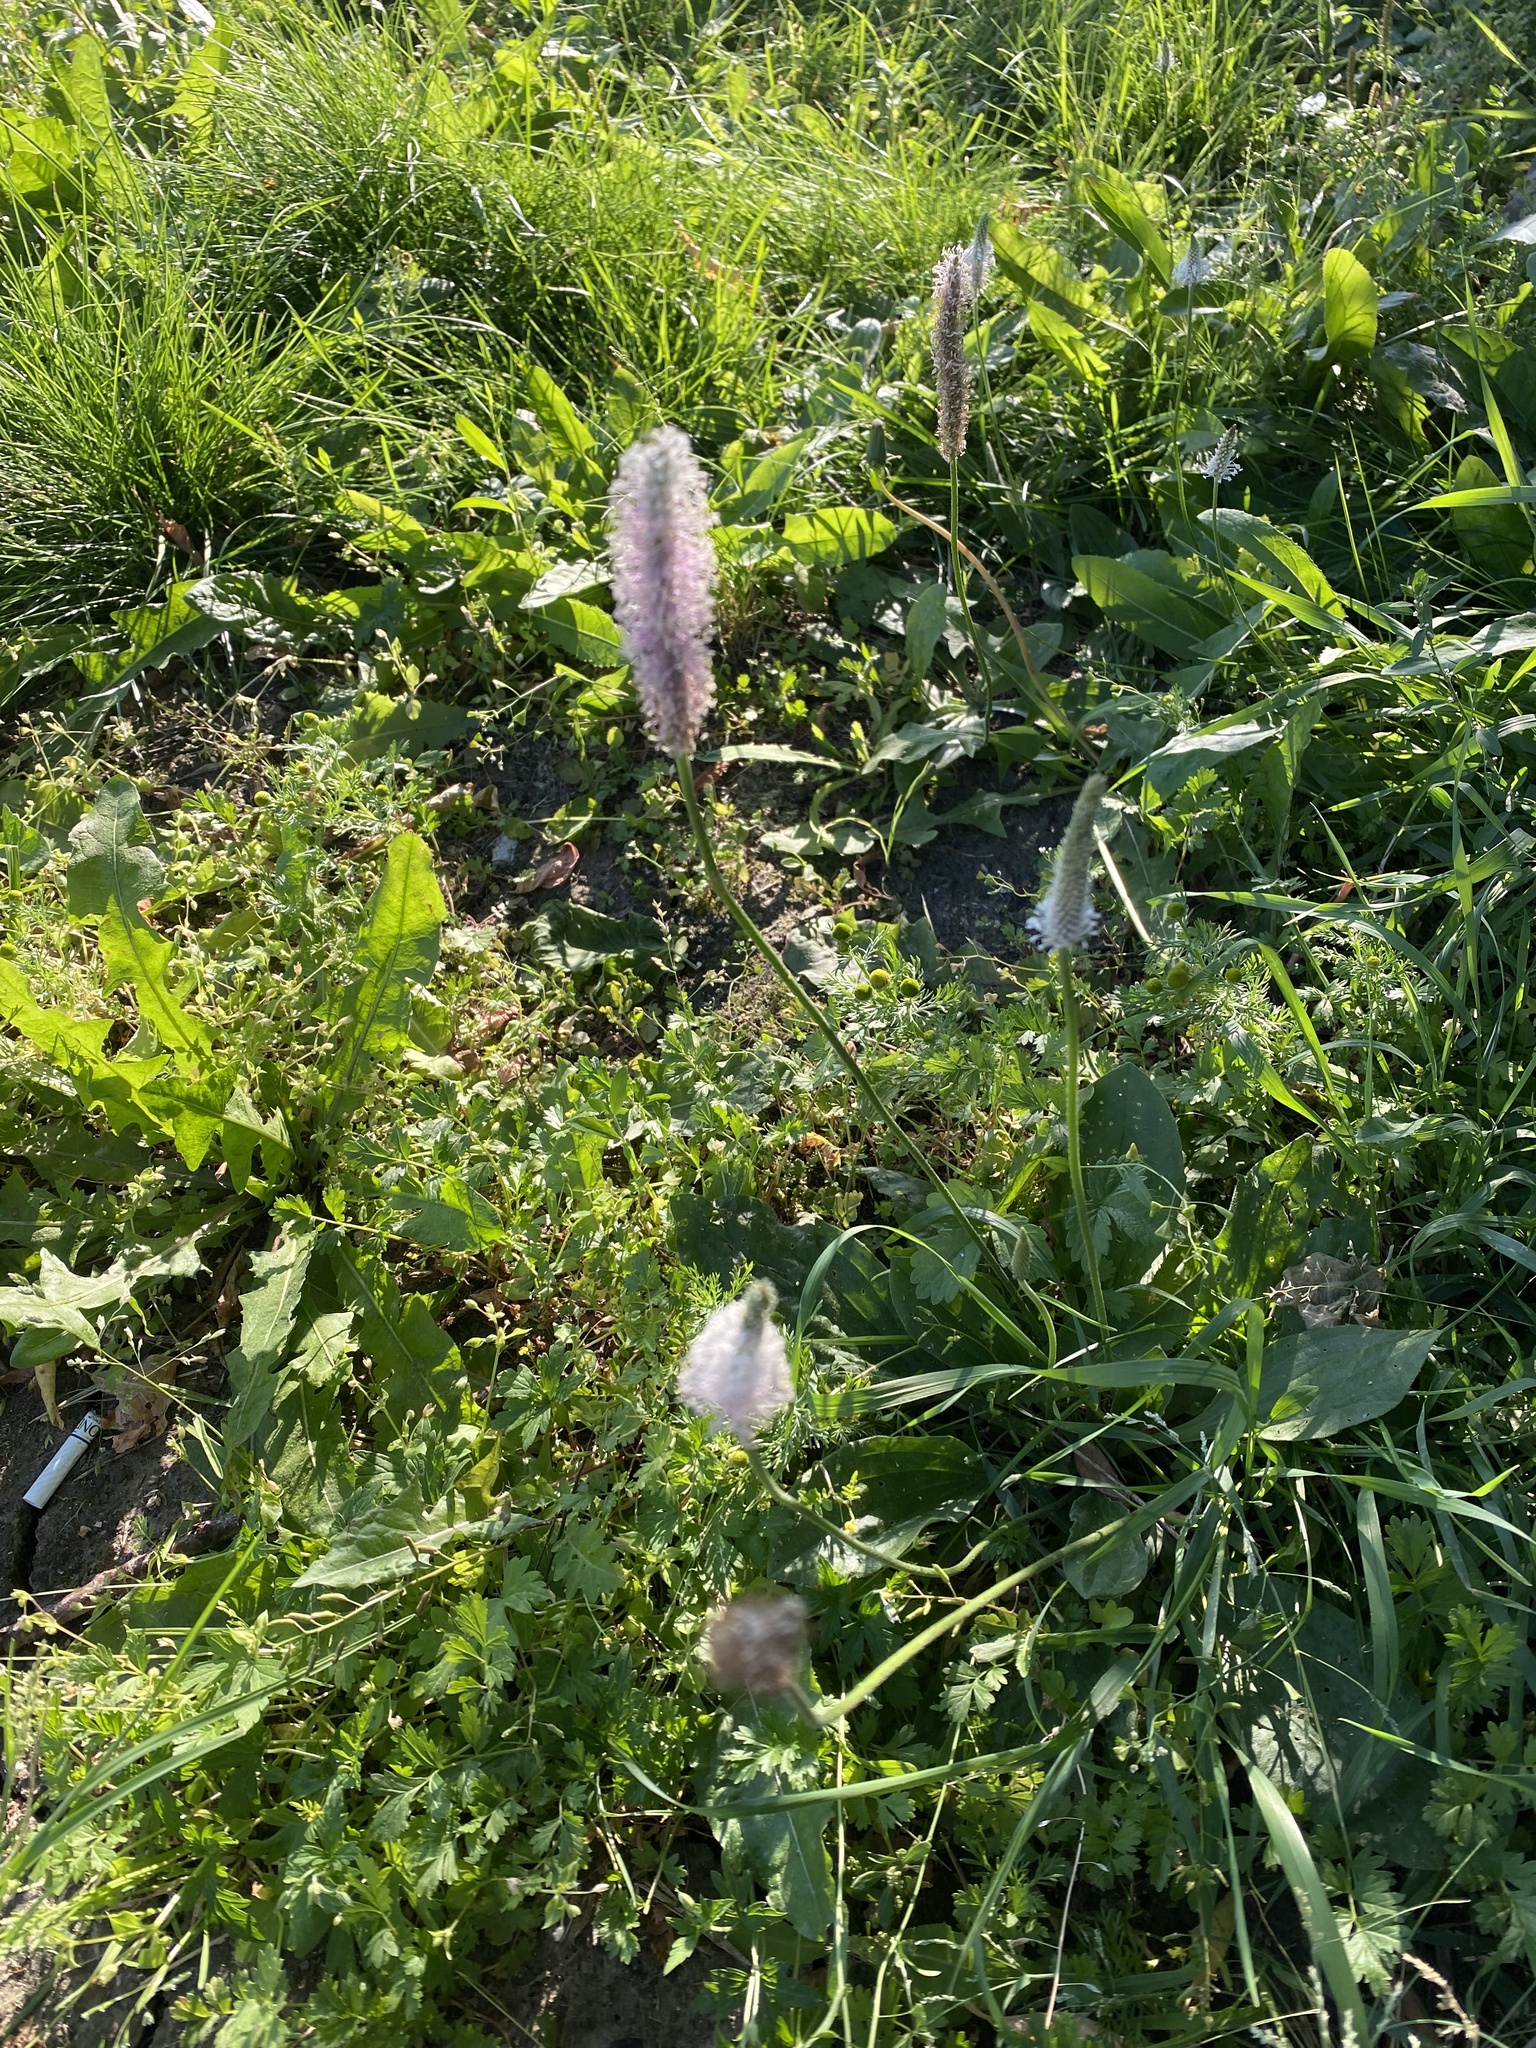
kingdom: Plantae
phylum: Tracheophyta
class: Magnoliopsida
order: Lamiales
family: Plantaginaceae
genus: Plantago
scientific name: Plantago media
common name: Hoary plantain
